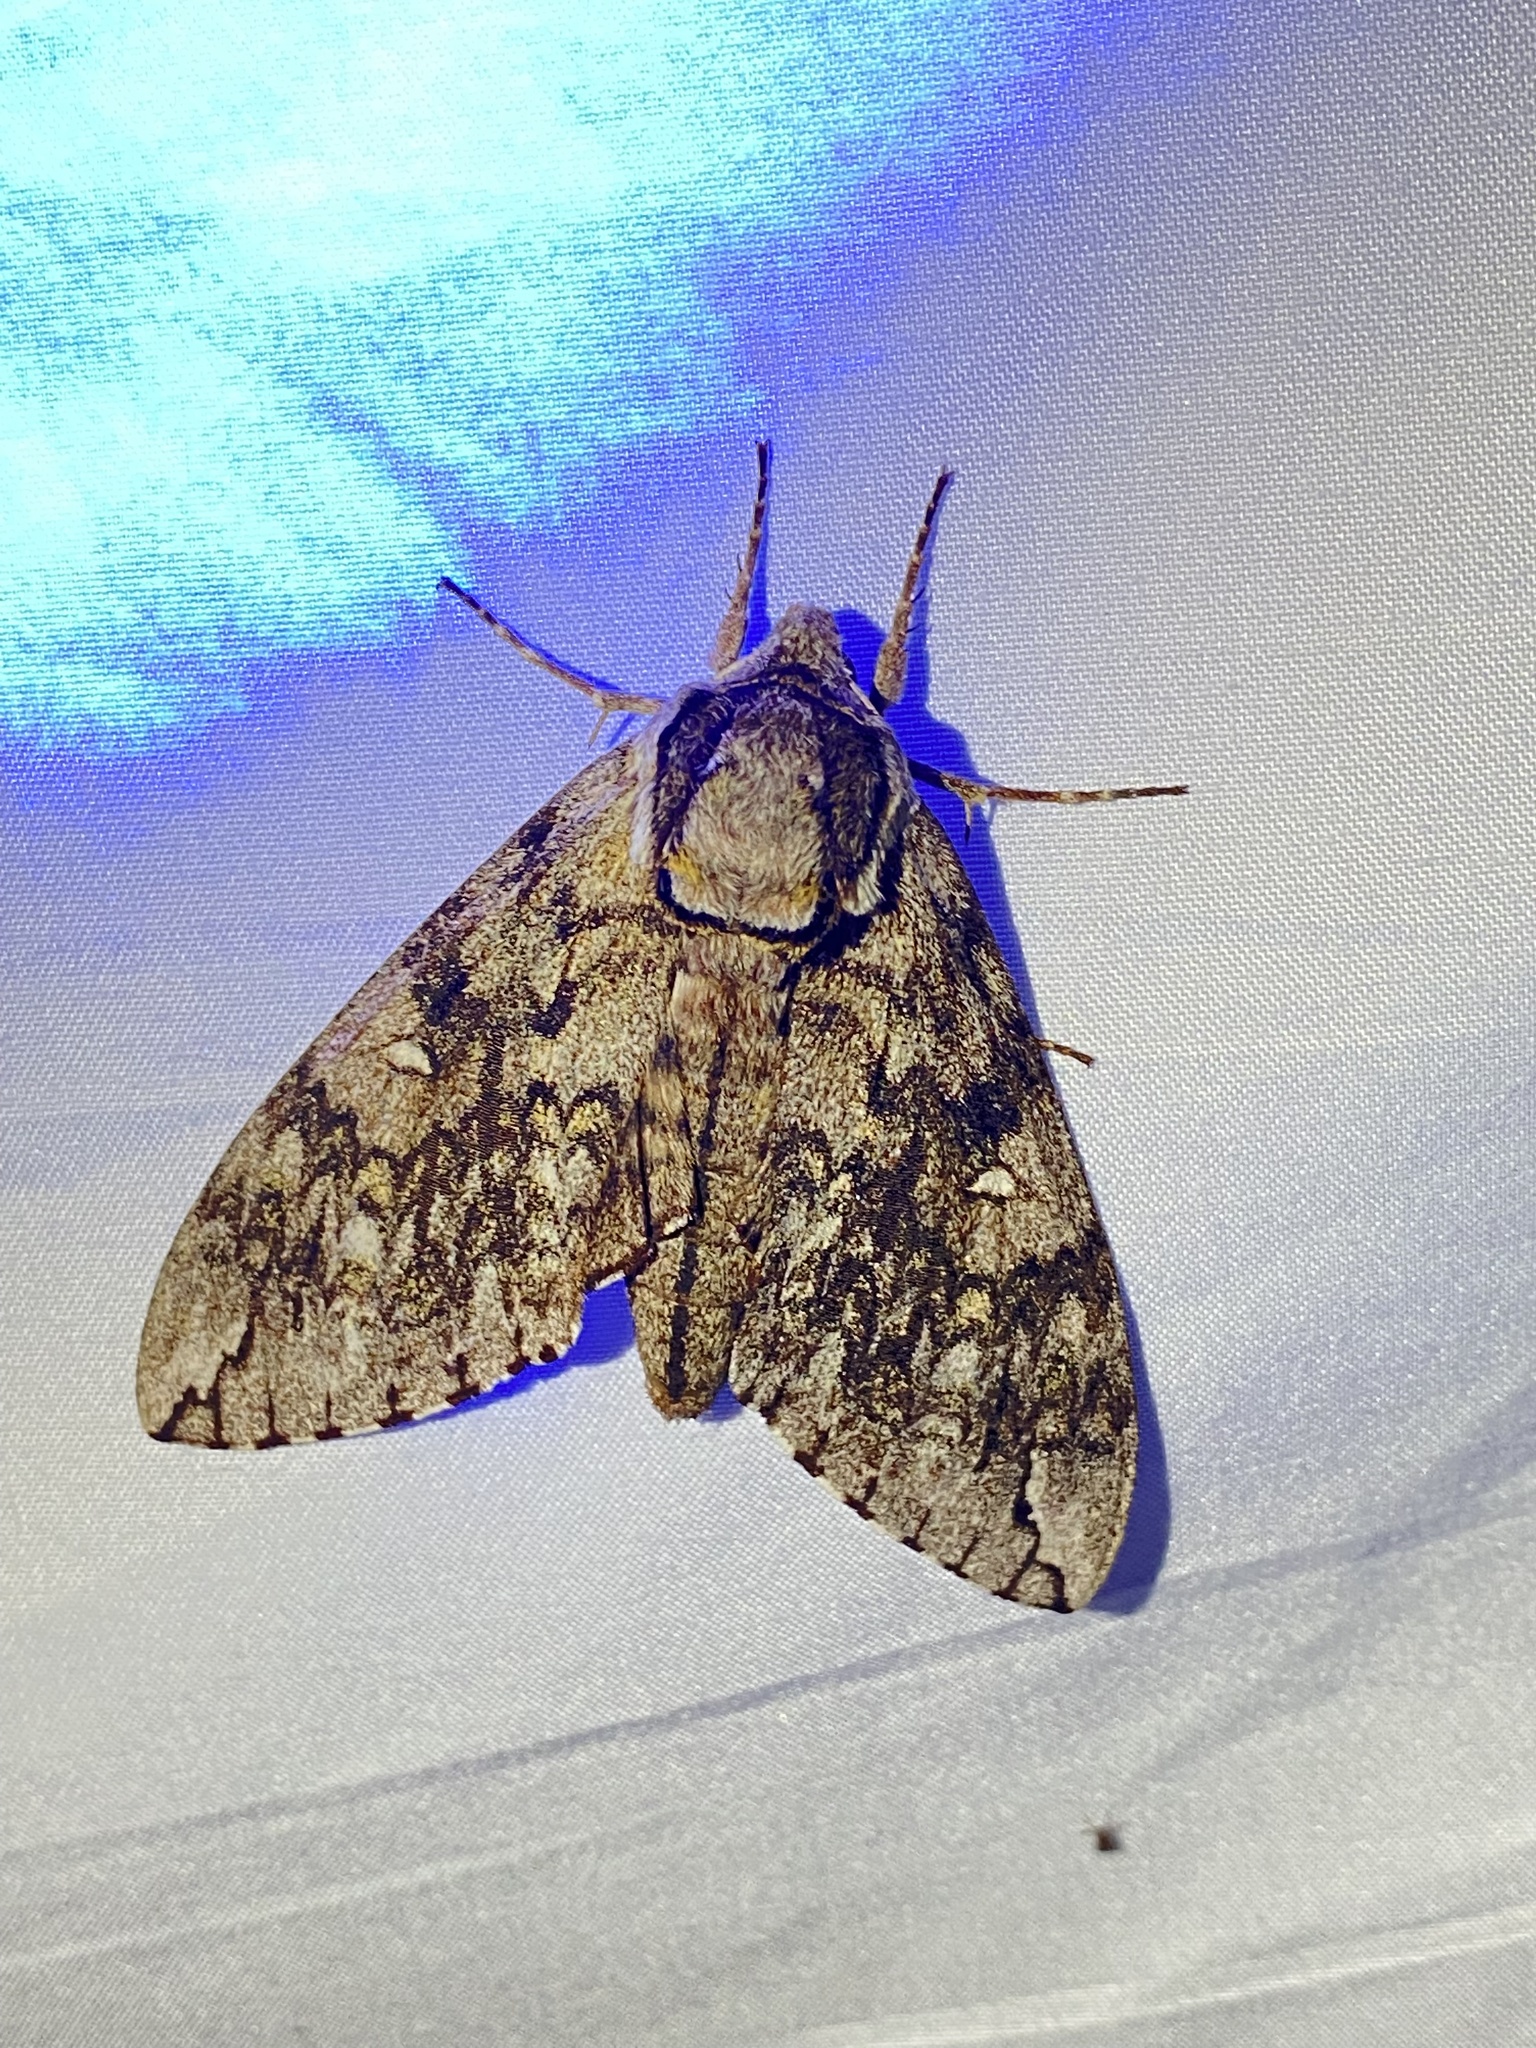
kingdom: Animalia
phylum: Arthropoda
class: Insecta
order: Lepidoptera
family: Sphingidae
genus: Ceratomia
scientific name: Ceratomia undulosa
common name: Waved sphinx
